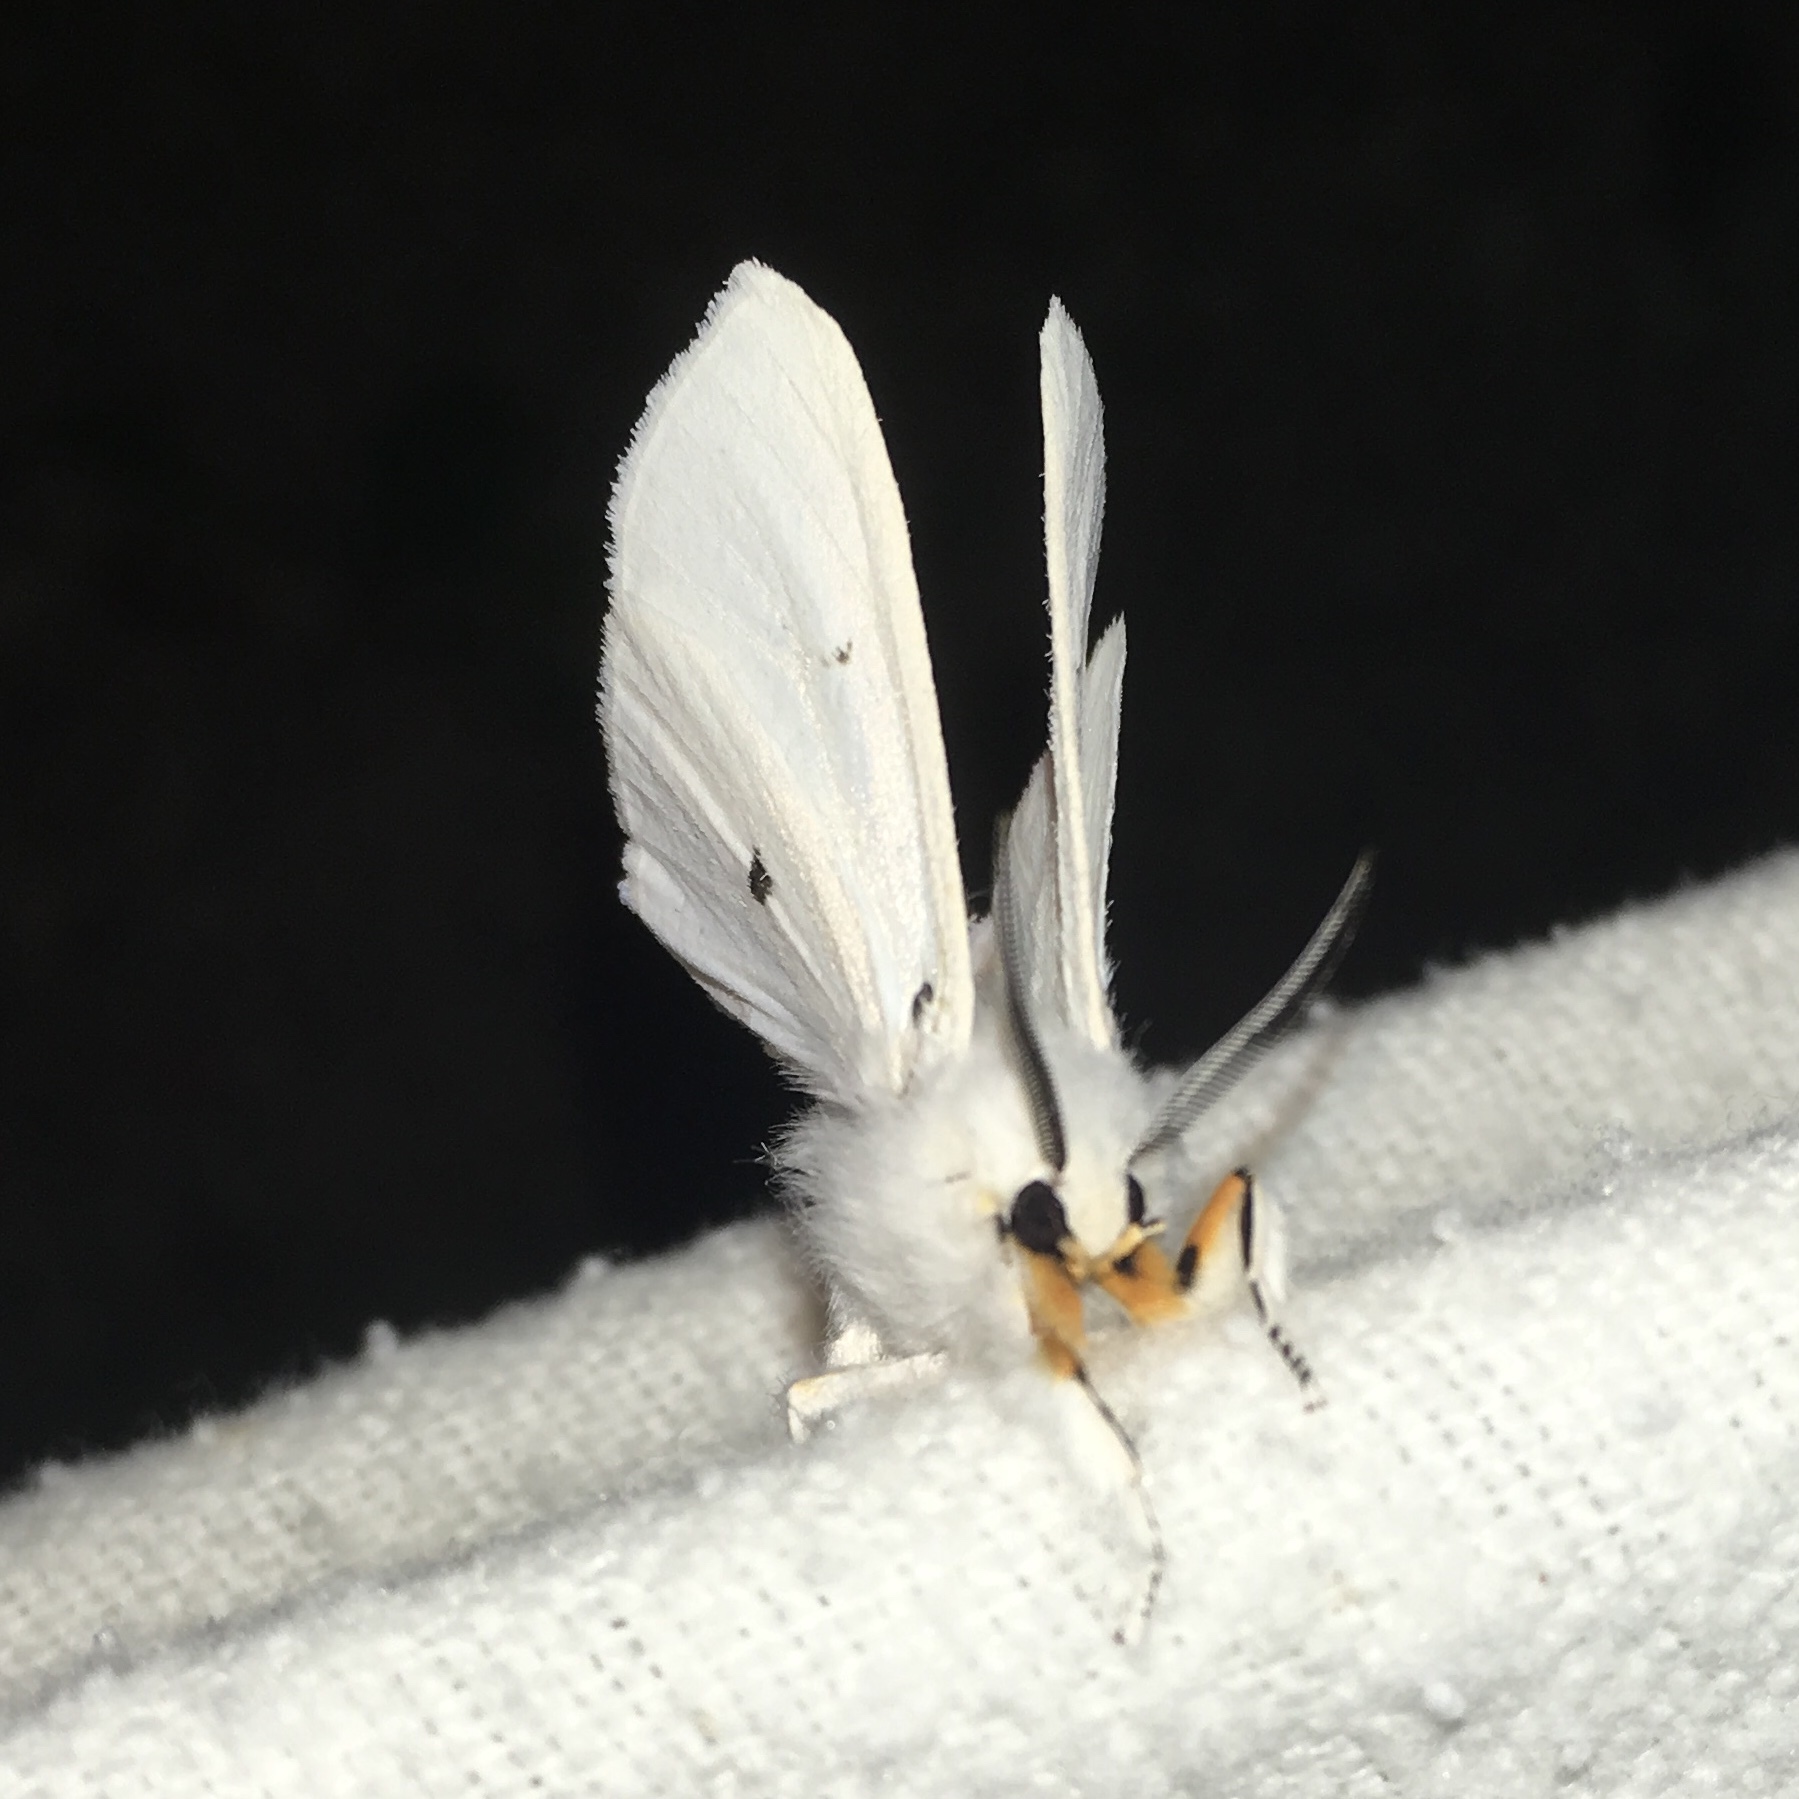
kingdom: Animalia
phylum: Arthropoda
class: Insecta
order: Lepidoptera
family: Erebidae
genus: Spilosoma
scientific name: Spilosoma virginica
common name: Virginia tiger moth
